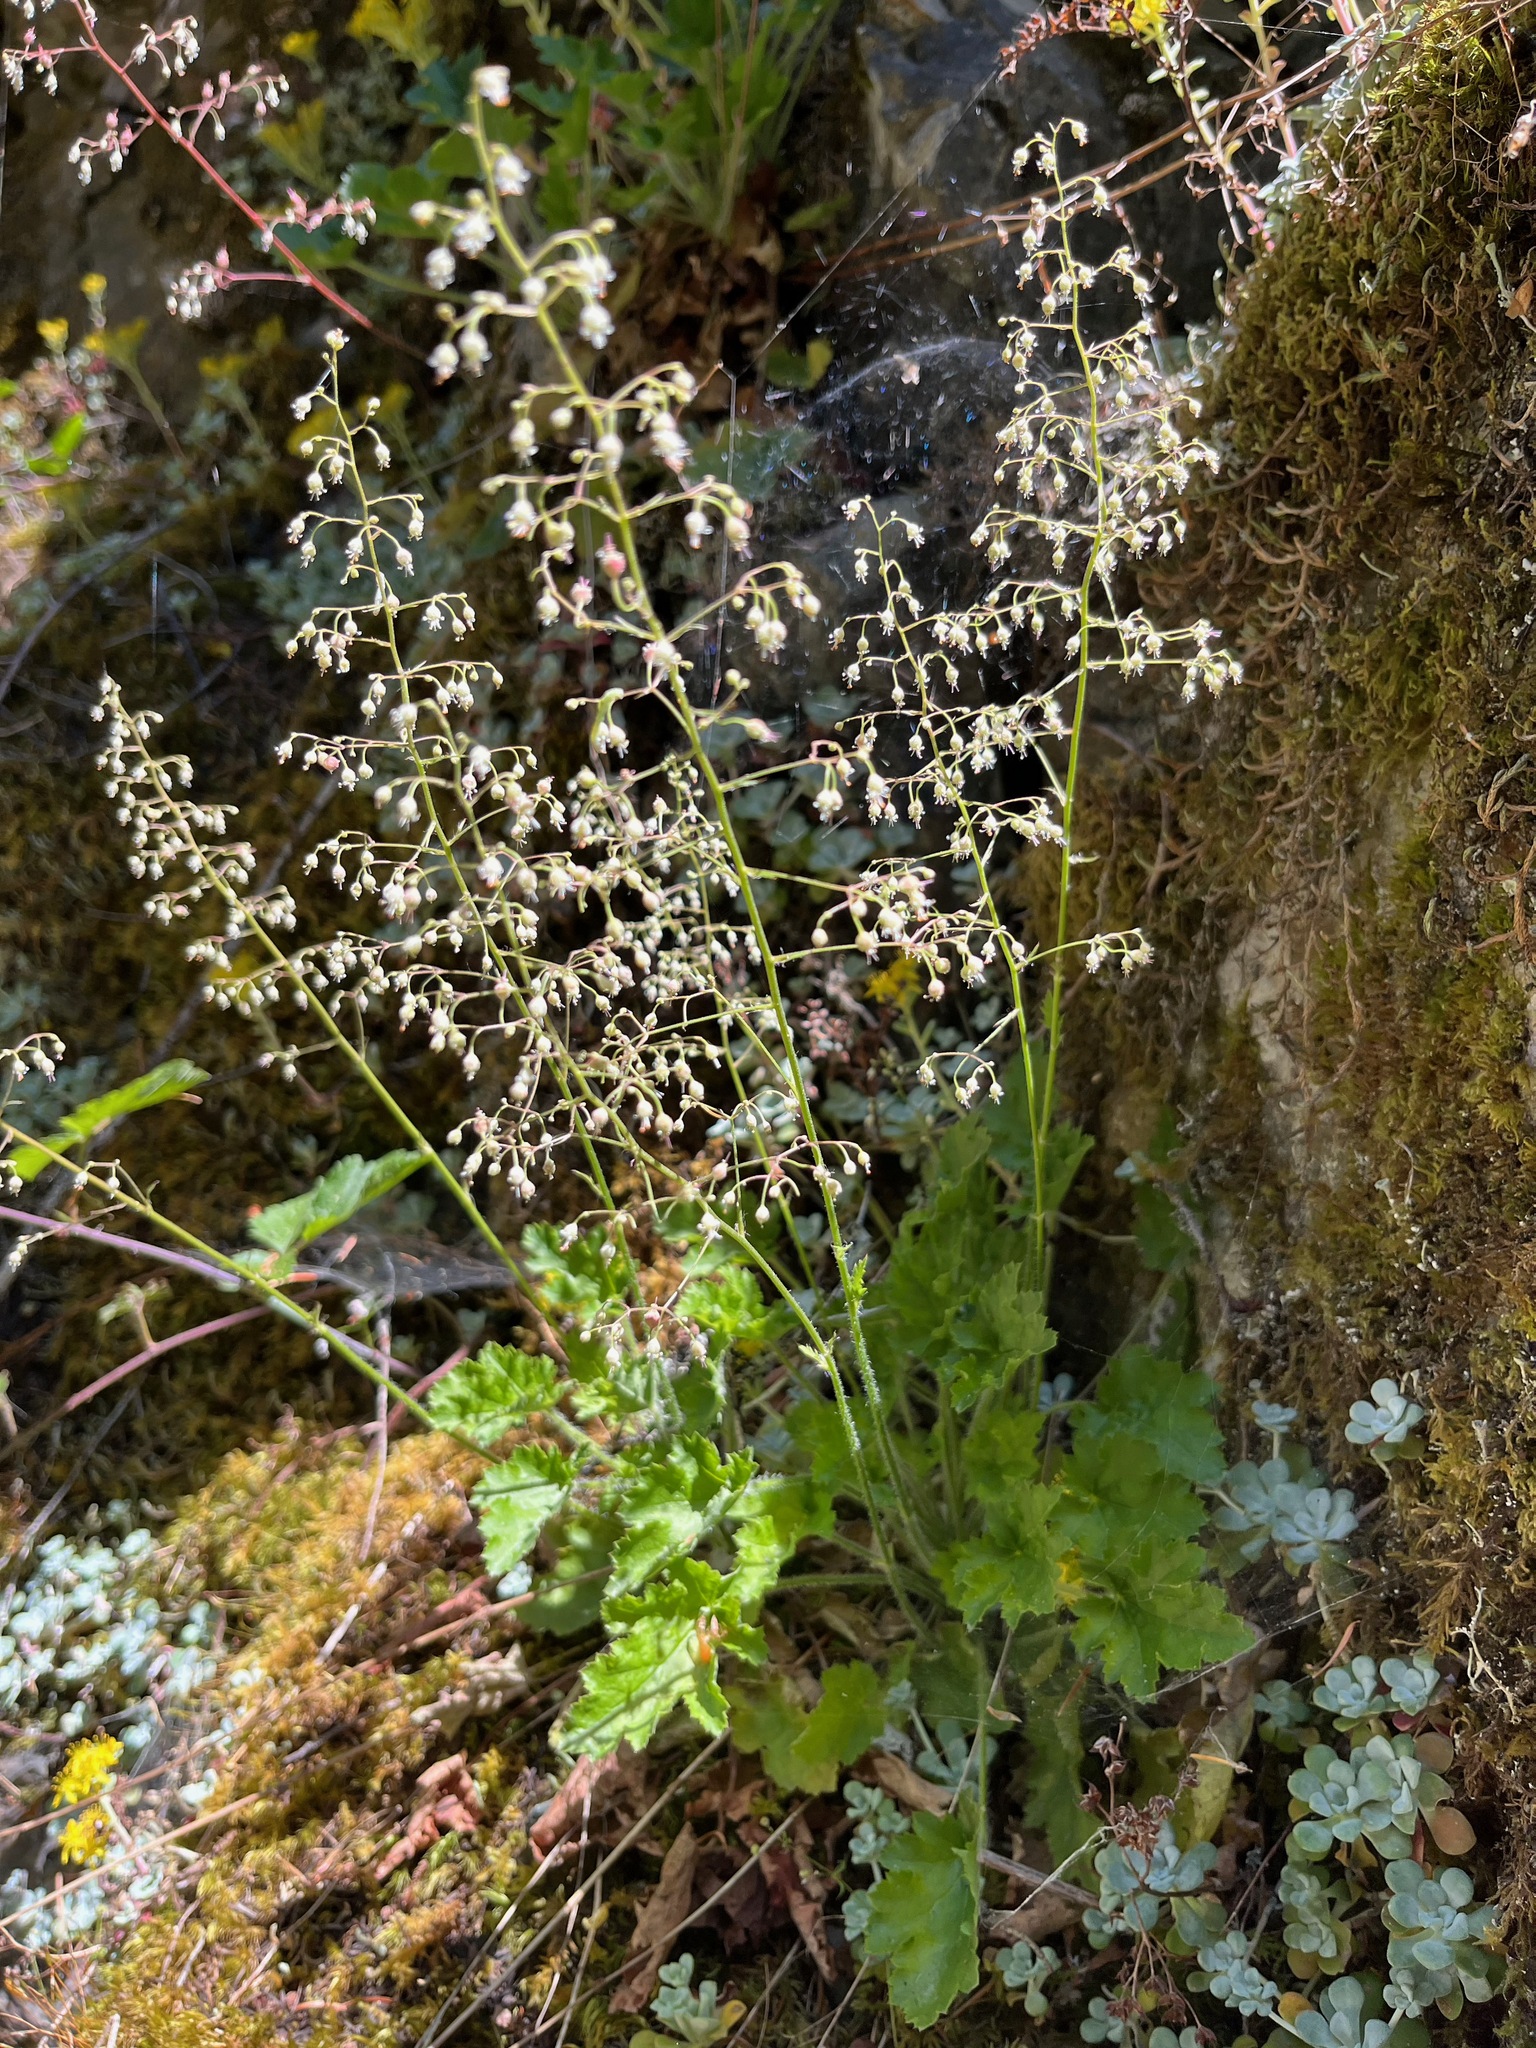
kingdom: Plantae
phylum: Tracheophyta
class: Magnoliopsida
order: Saxifragales
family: Saxifragaceae
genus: Heuchera
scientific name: Heuchera micrantha
